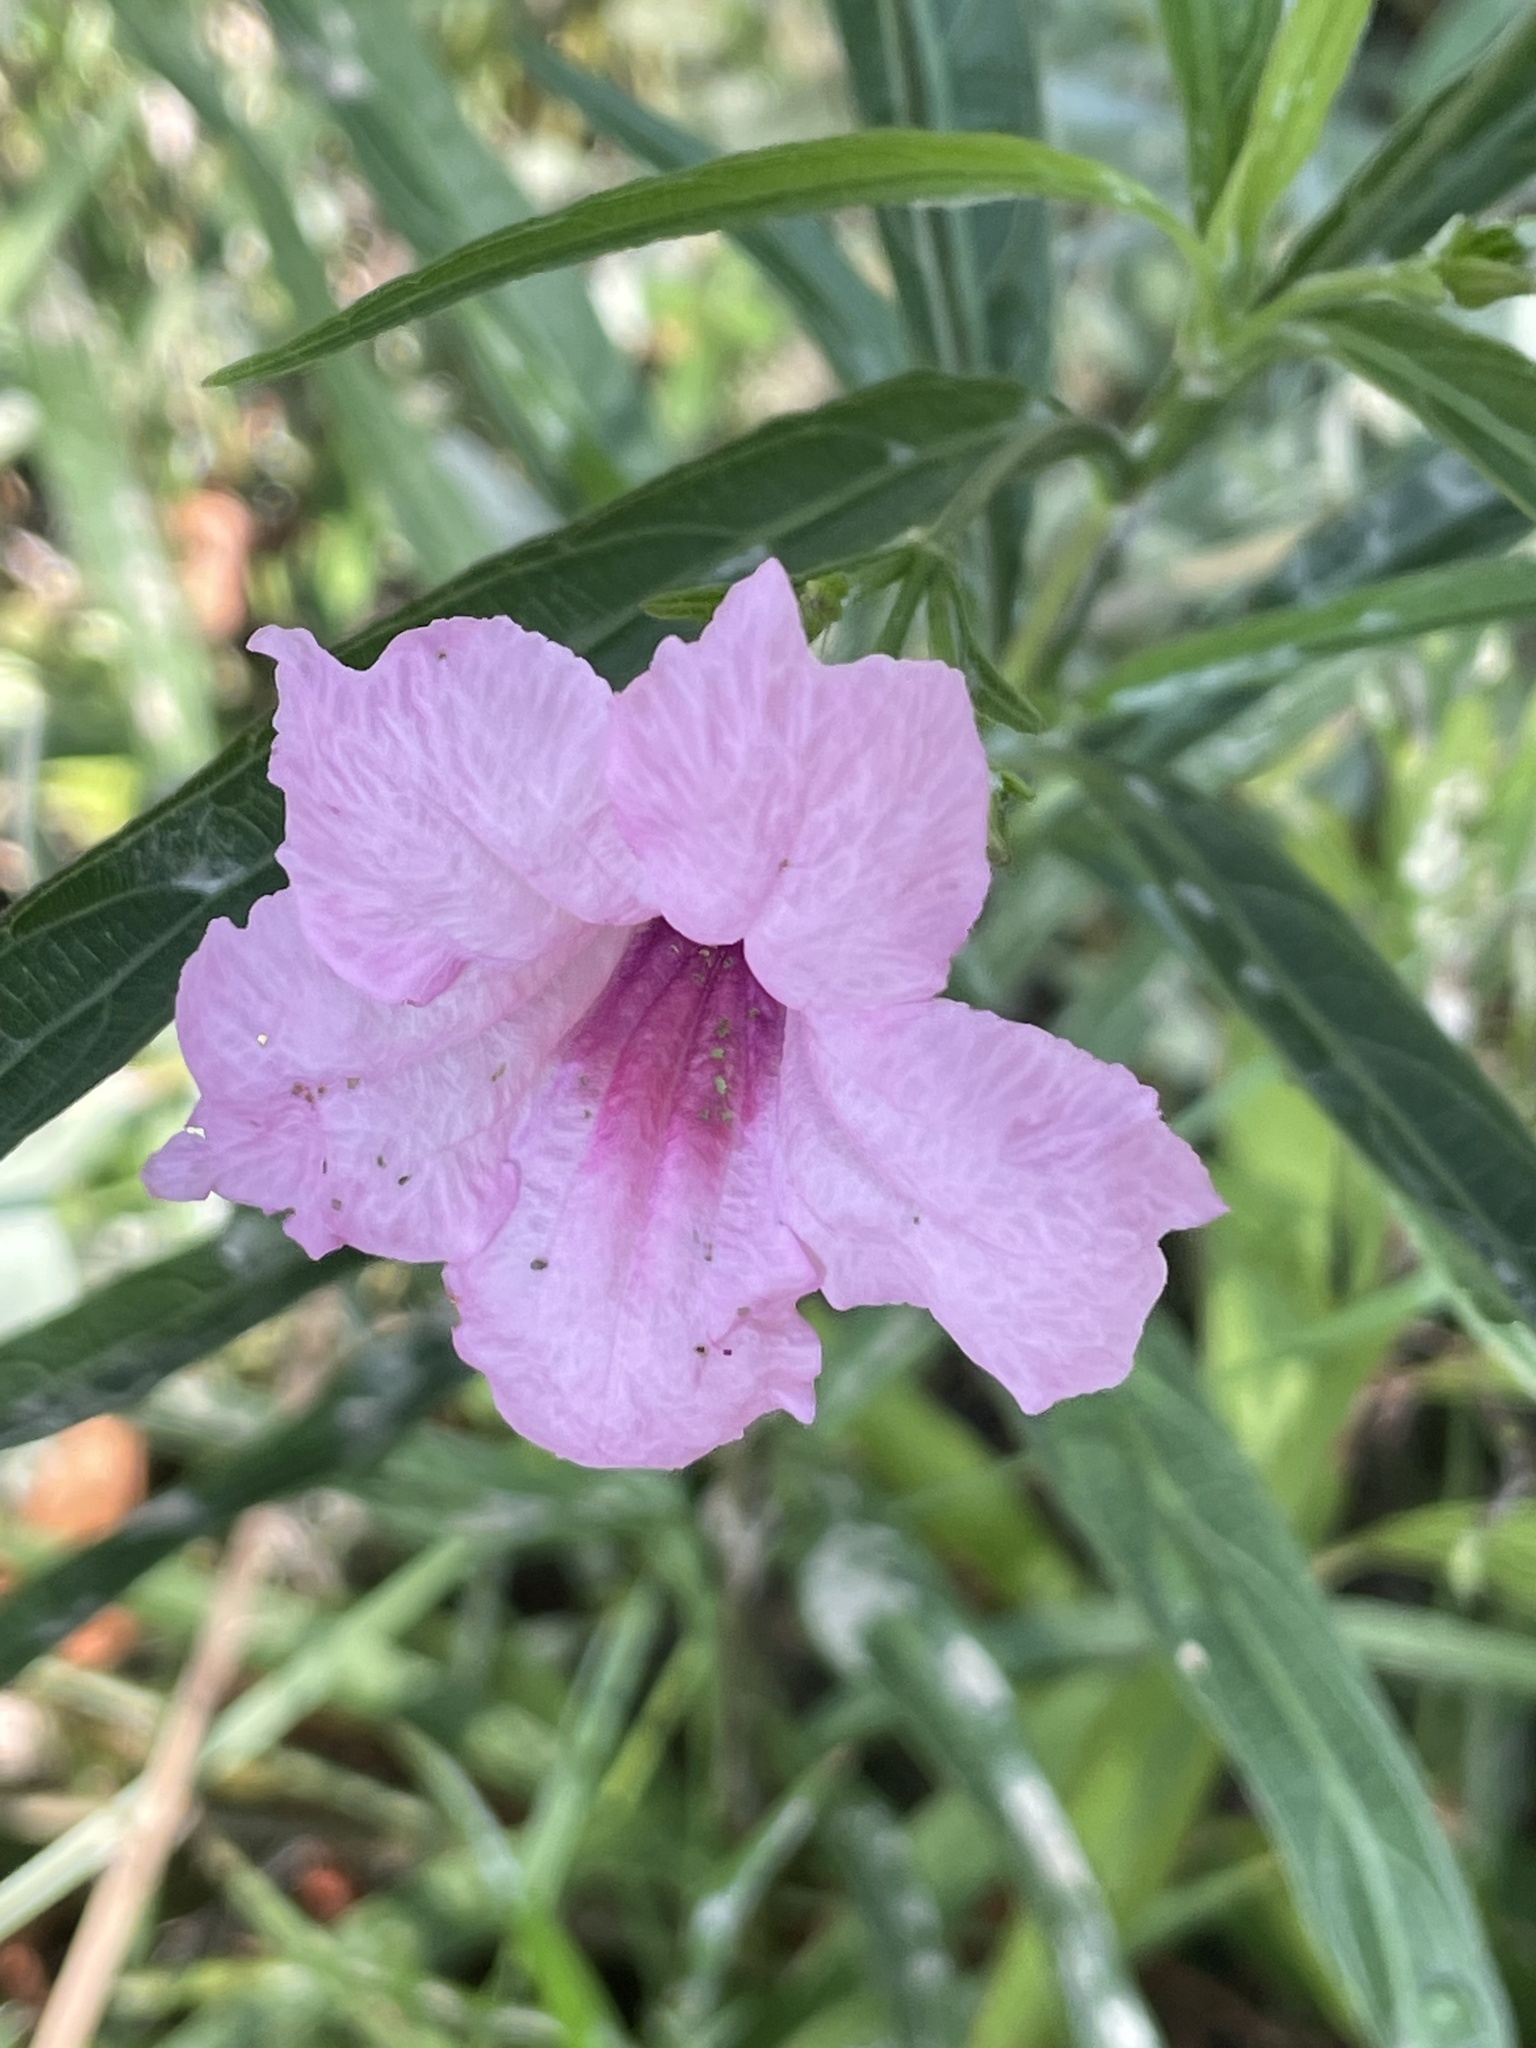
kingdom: Plantae
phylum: Tracheophyta
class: Magnoliopsida
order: Lamiales
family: Acanthaceae
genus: Ruellia
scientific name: Ruellia simplex
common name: Softseed wild petunia
